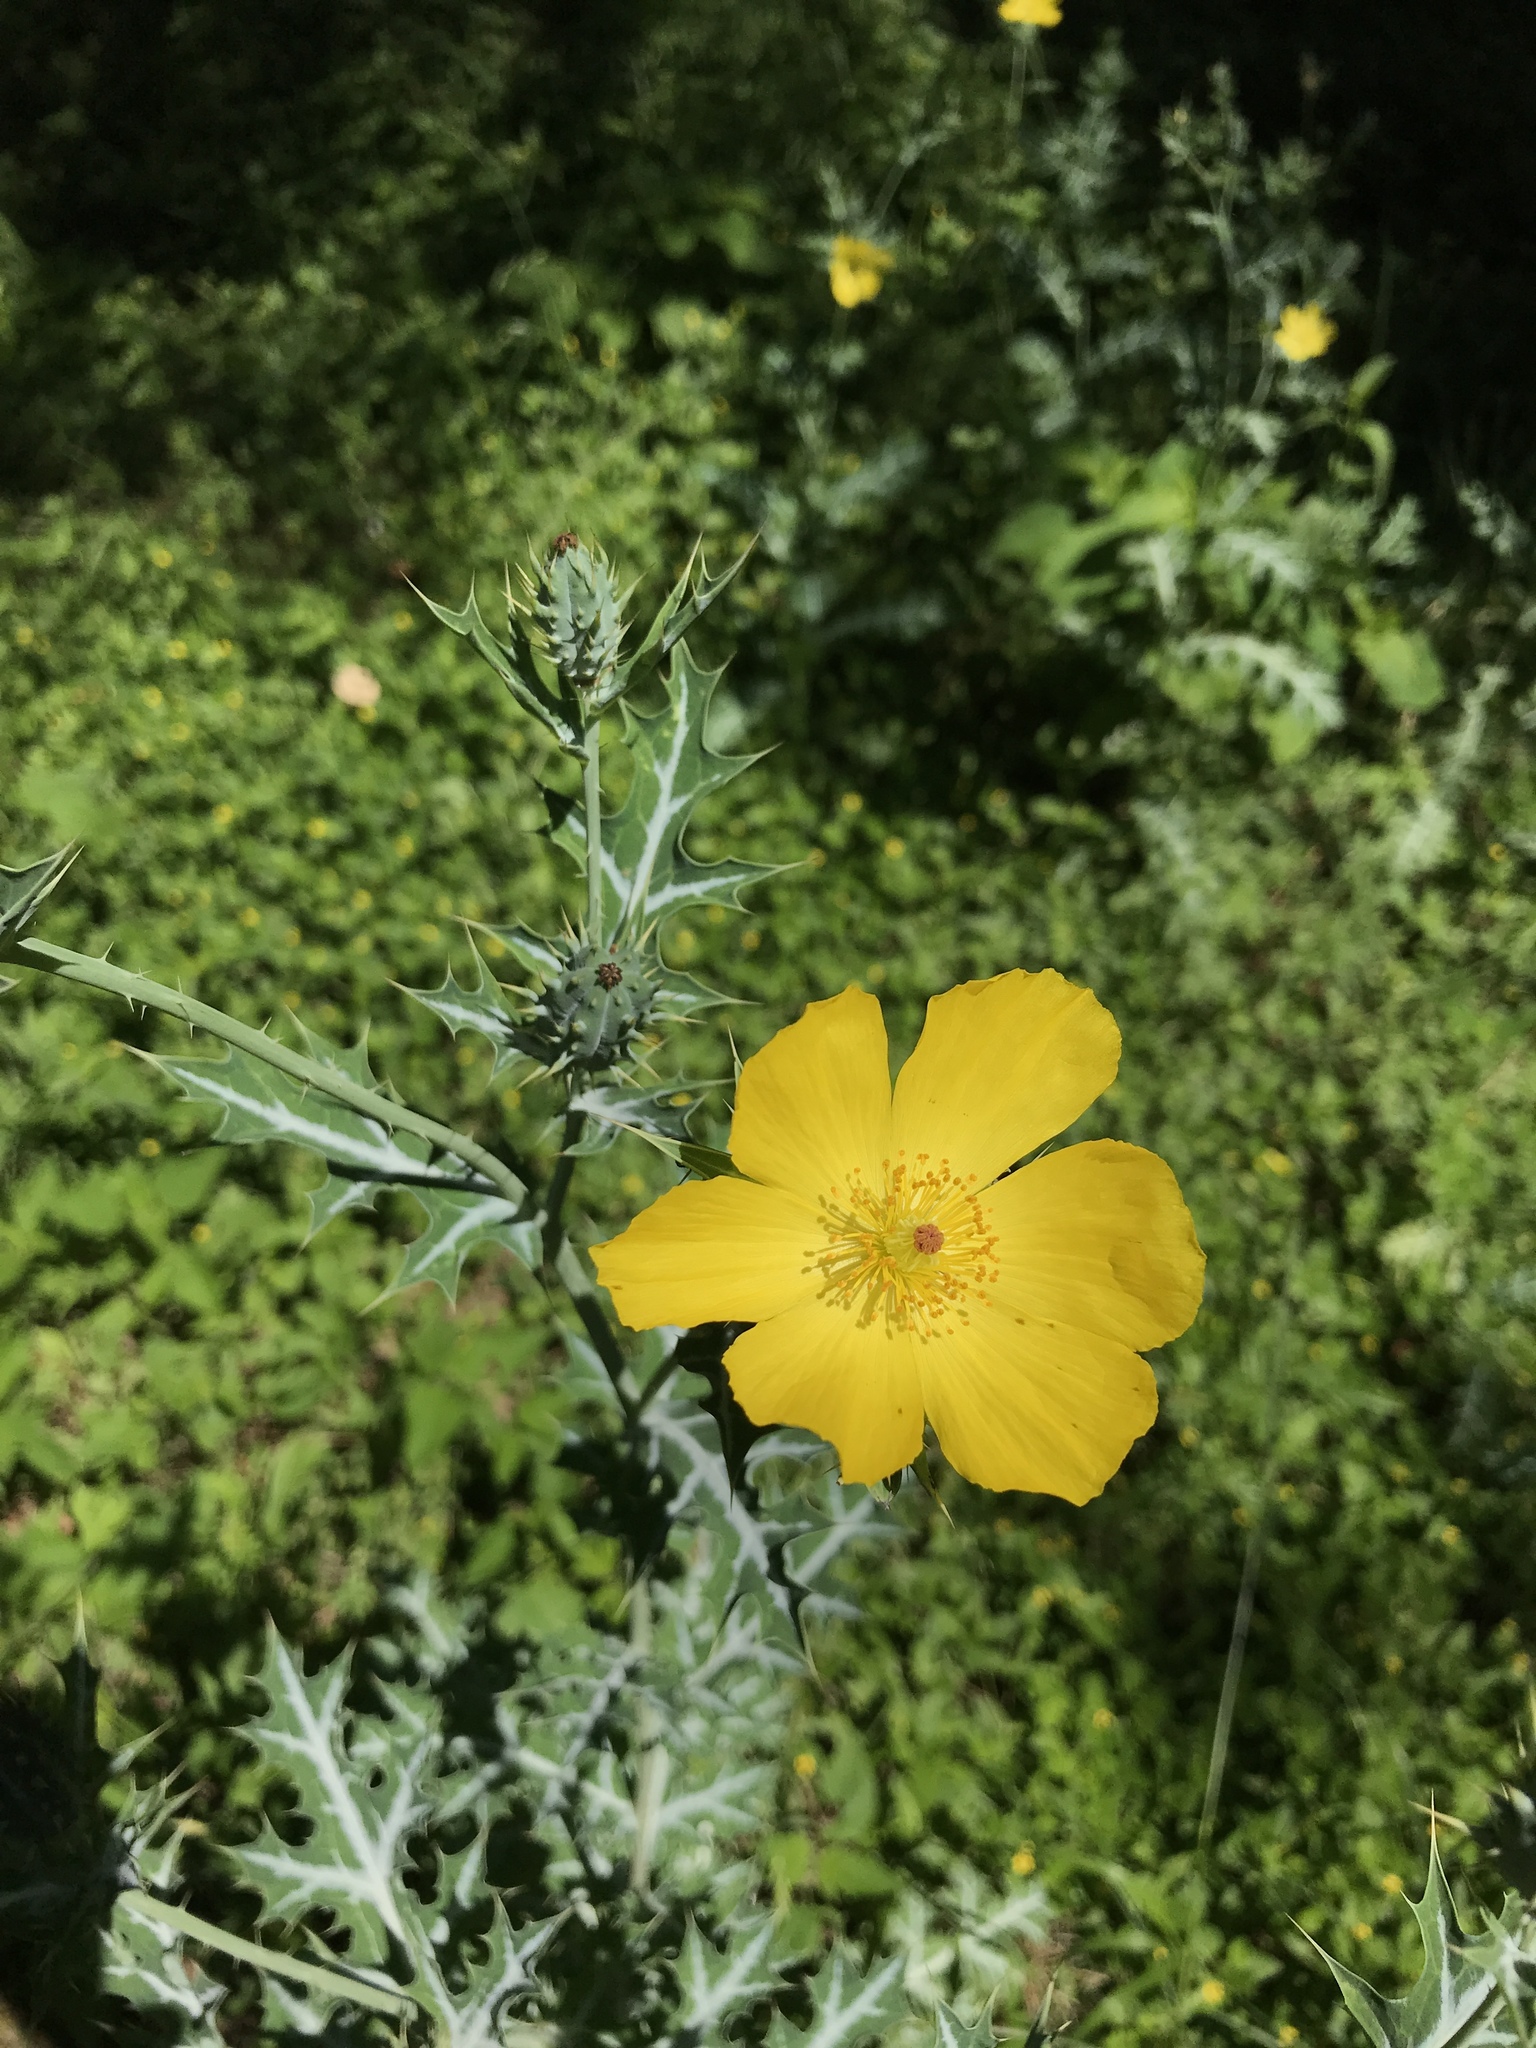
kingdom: Plantae
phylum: Tracheophyta
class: Magnoliopsida
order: Ranunculales
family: Papaveraceae
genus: Argemone
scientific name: Argemone mexicana
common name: Mexican poppy
